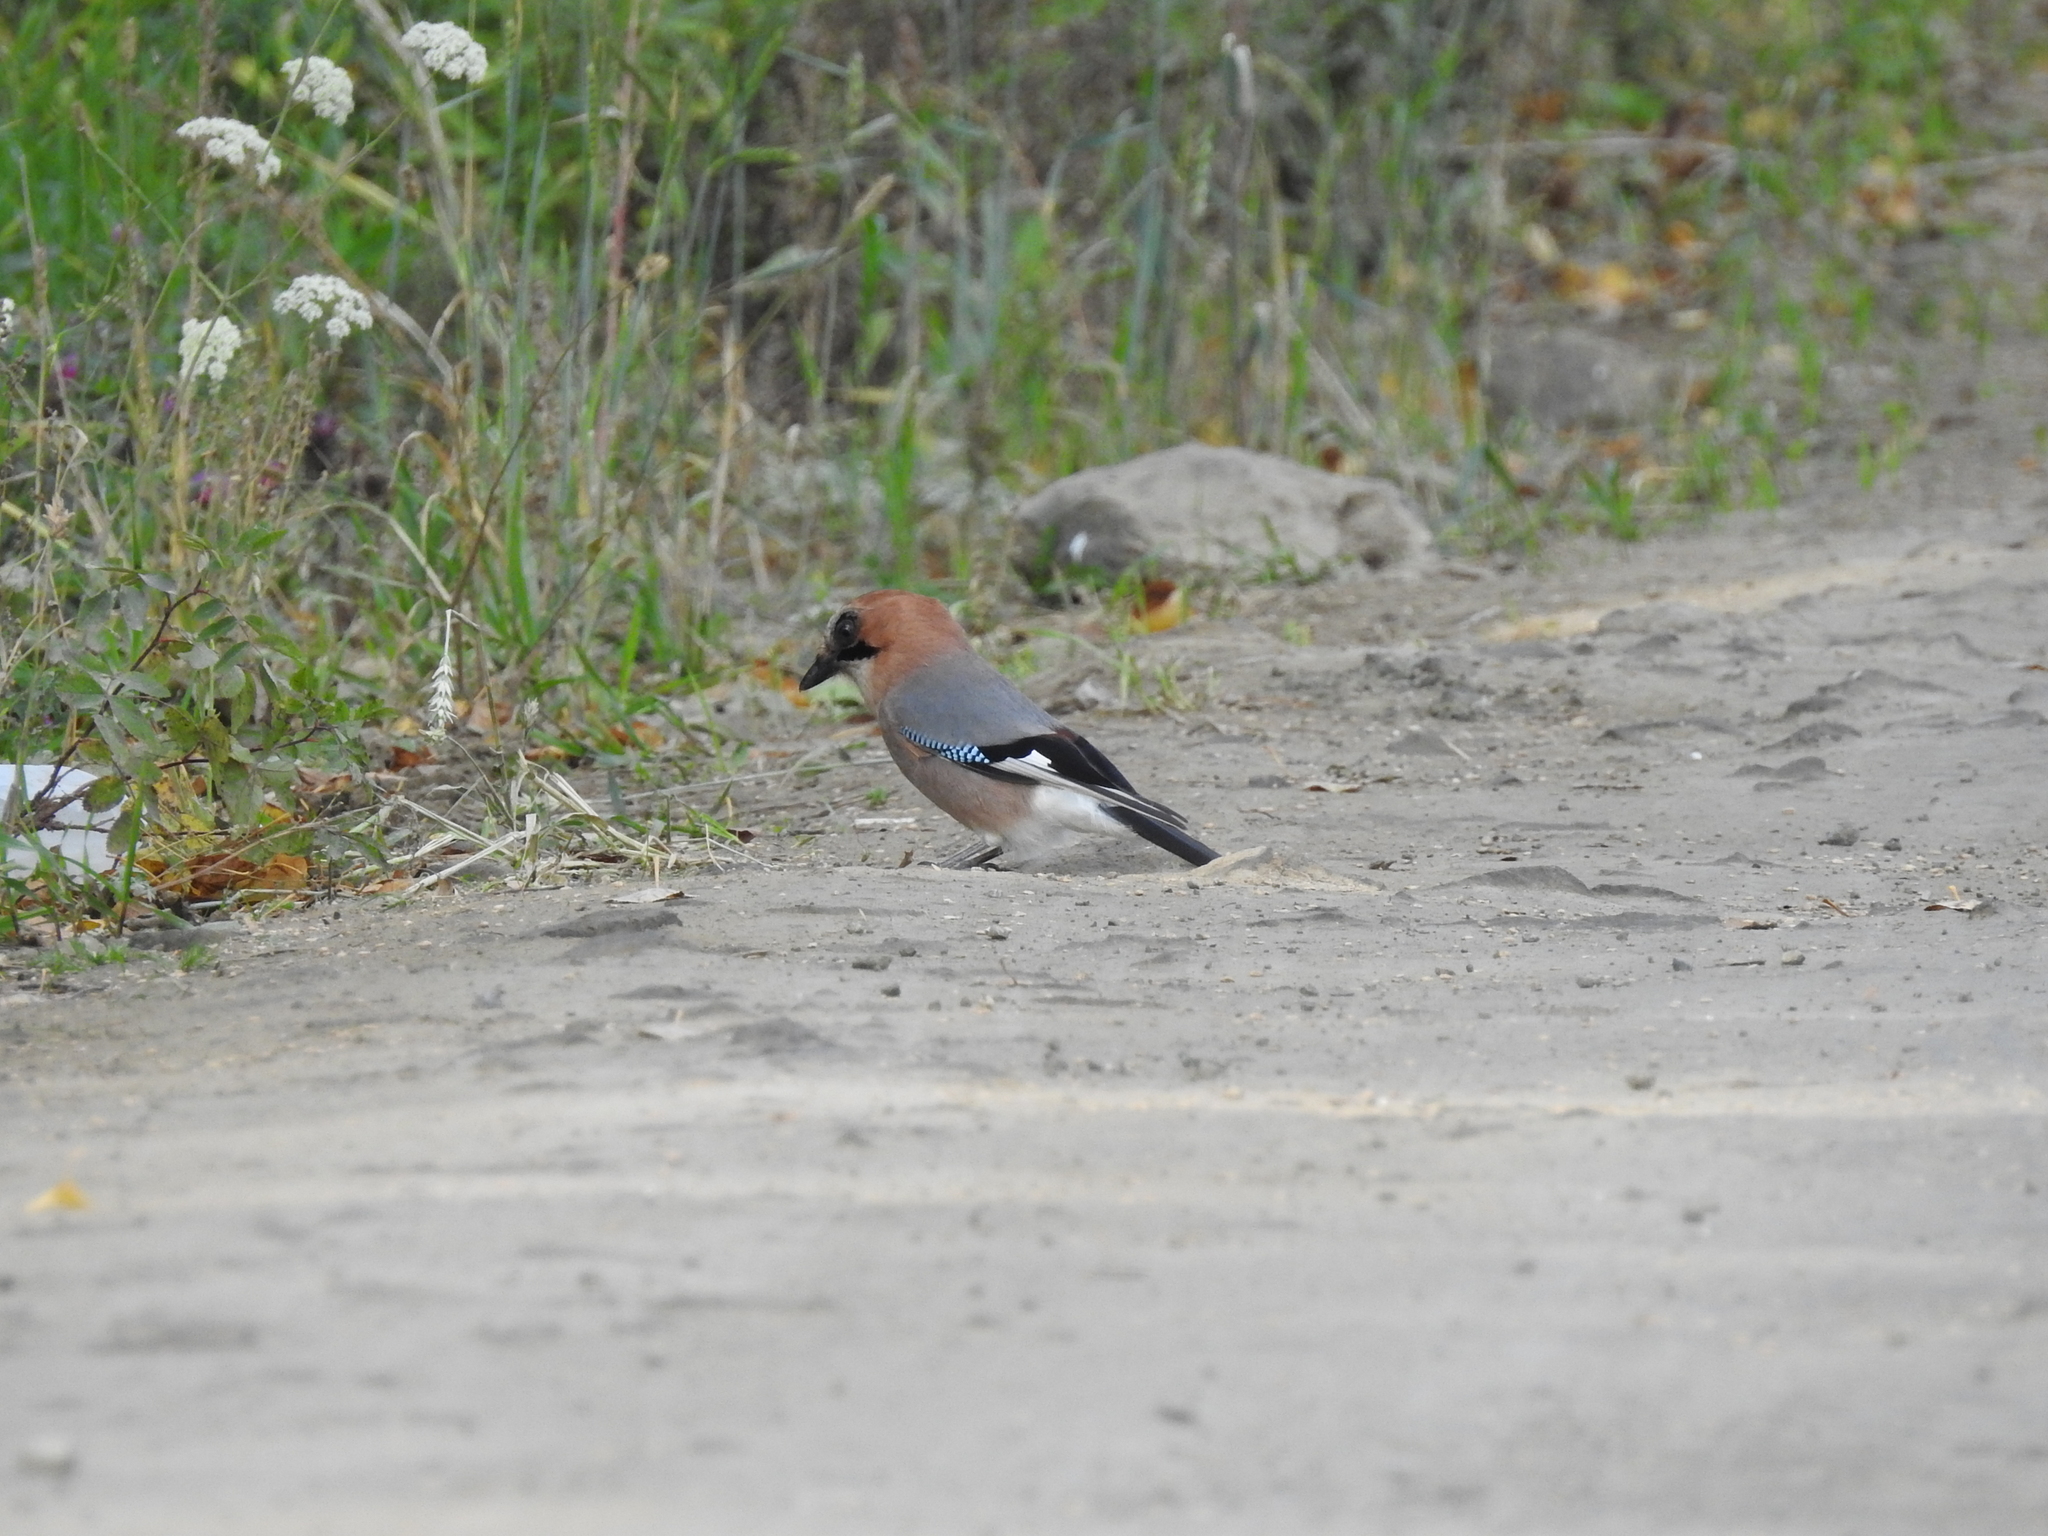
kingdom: Animalia
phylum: Chordata
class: Aves
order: Passeriformes
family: Corvidae
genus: Garrulus
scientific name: Garrulus glandarius
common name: Eurasian jay
